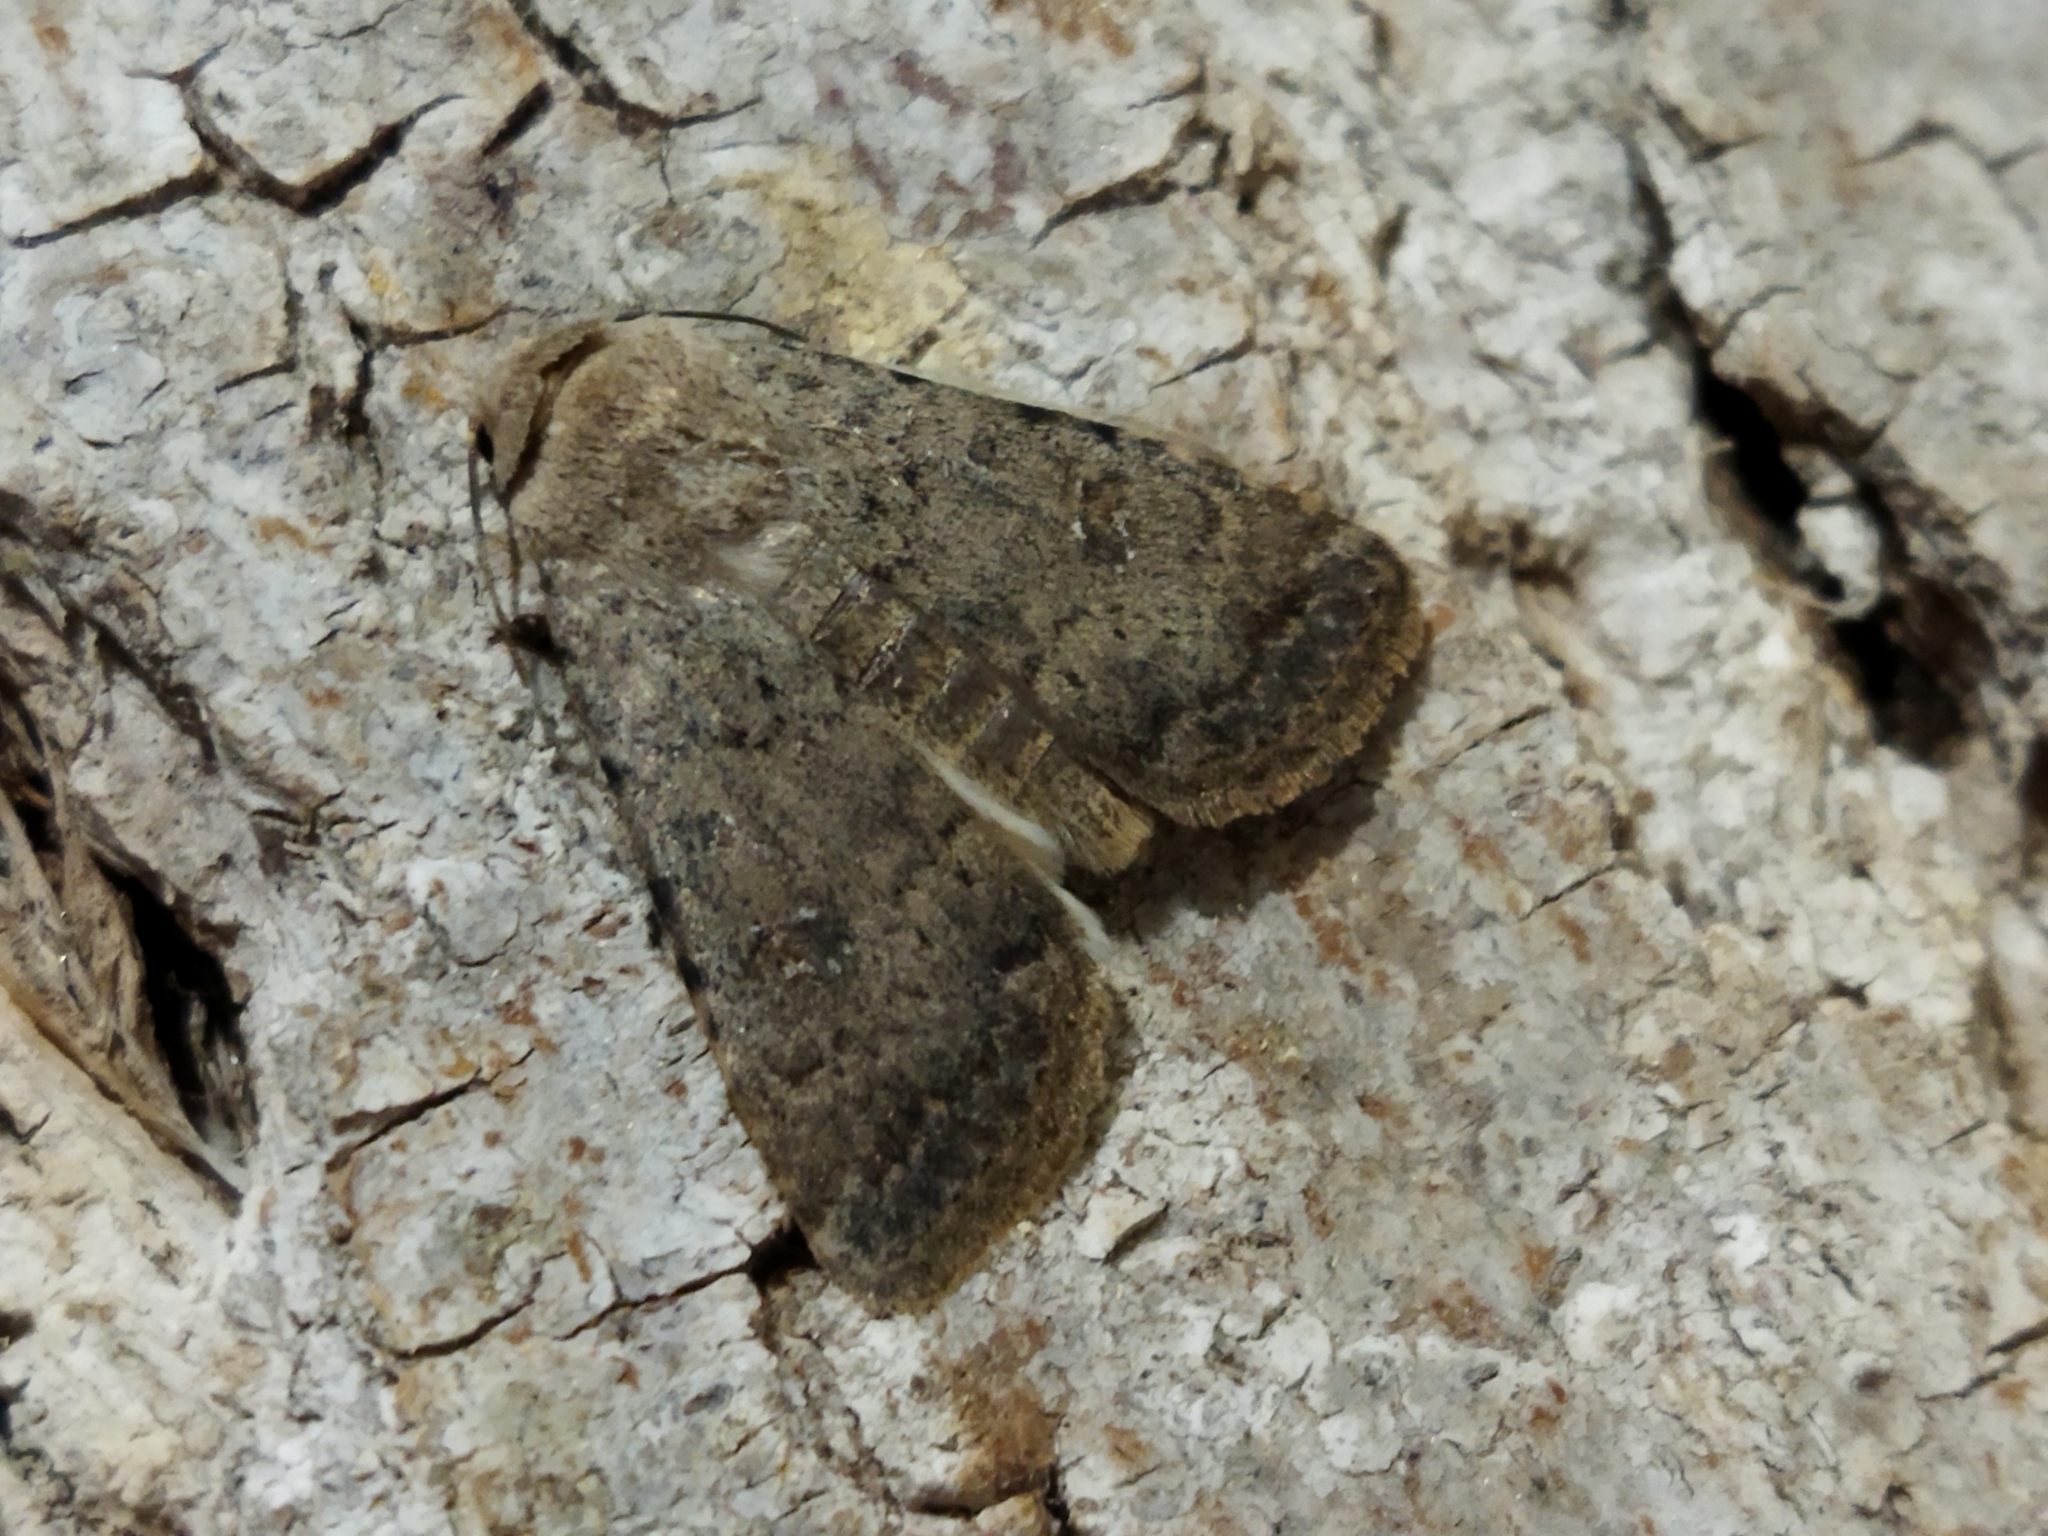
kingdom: Animalia
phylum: Arthropoda
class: Insecta
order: Lepidoptera
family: Noctuidae
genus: Caradrina
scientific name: Caradrina clavipalpis
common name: Pale mottled willow
